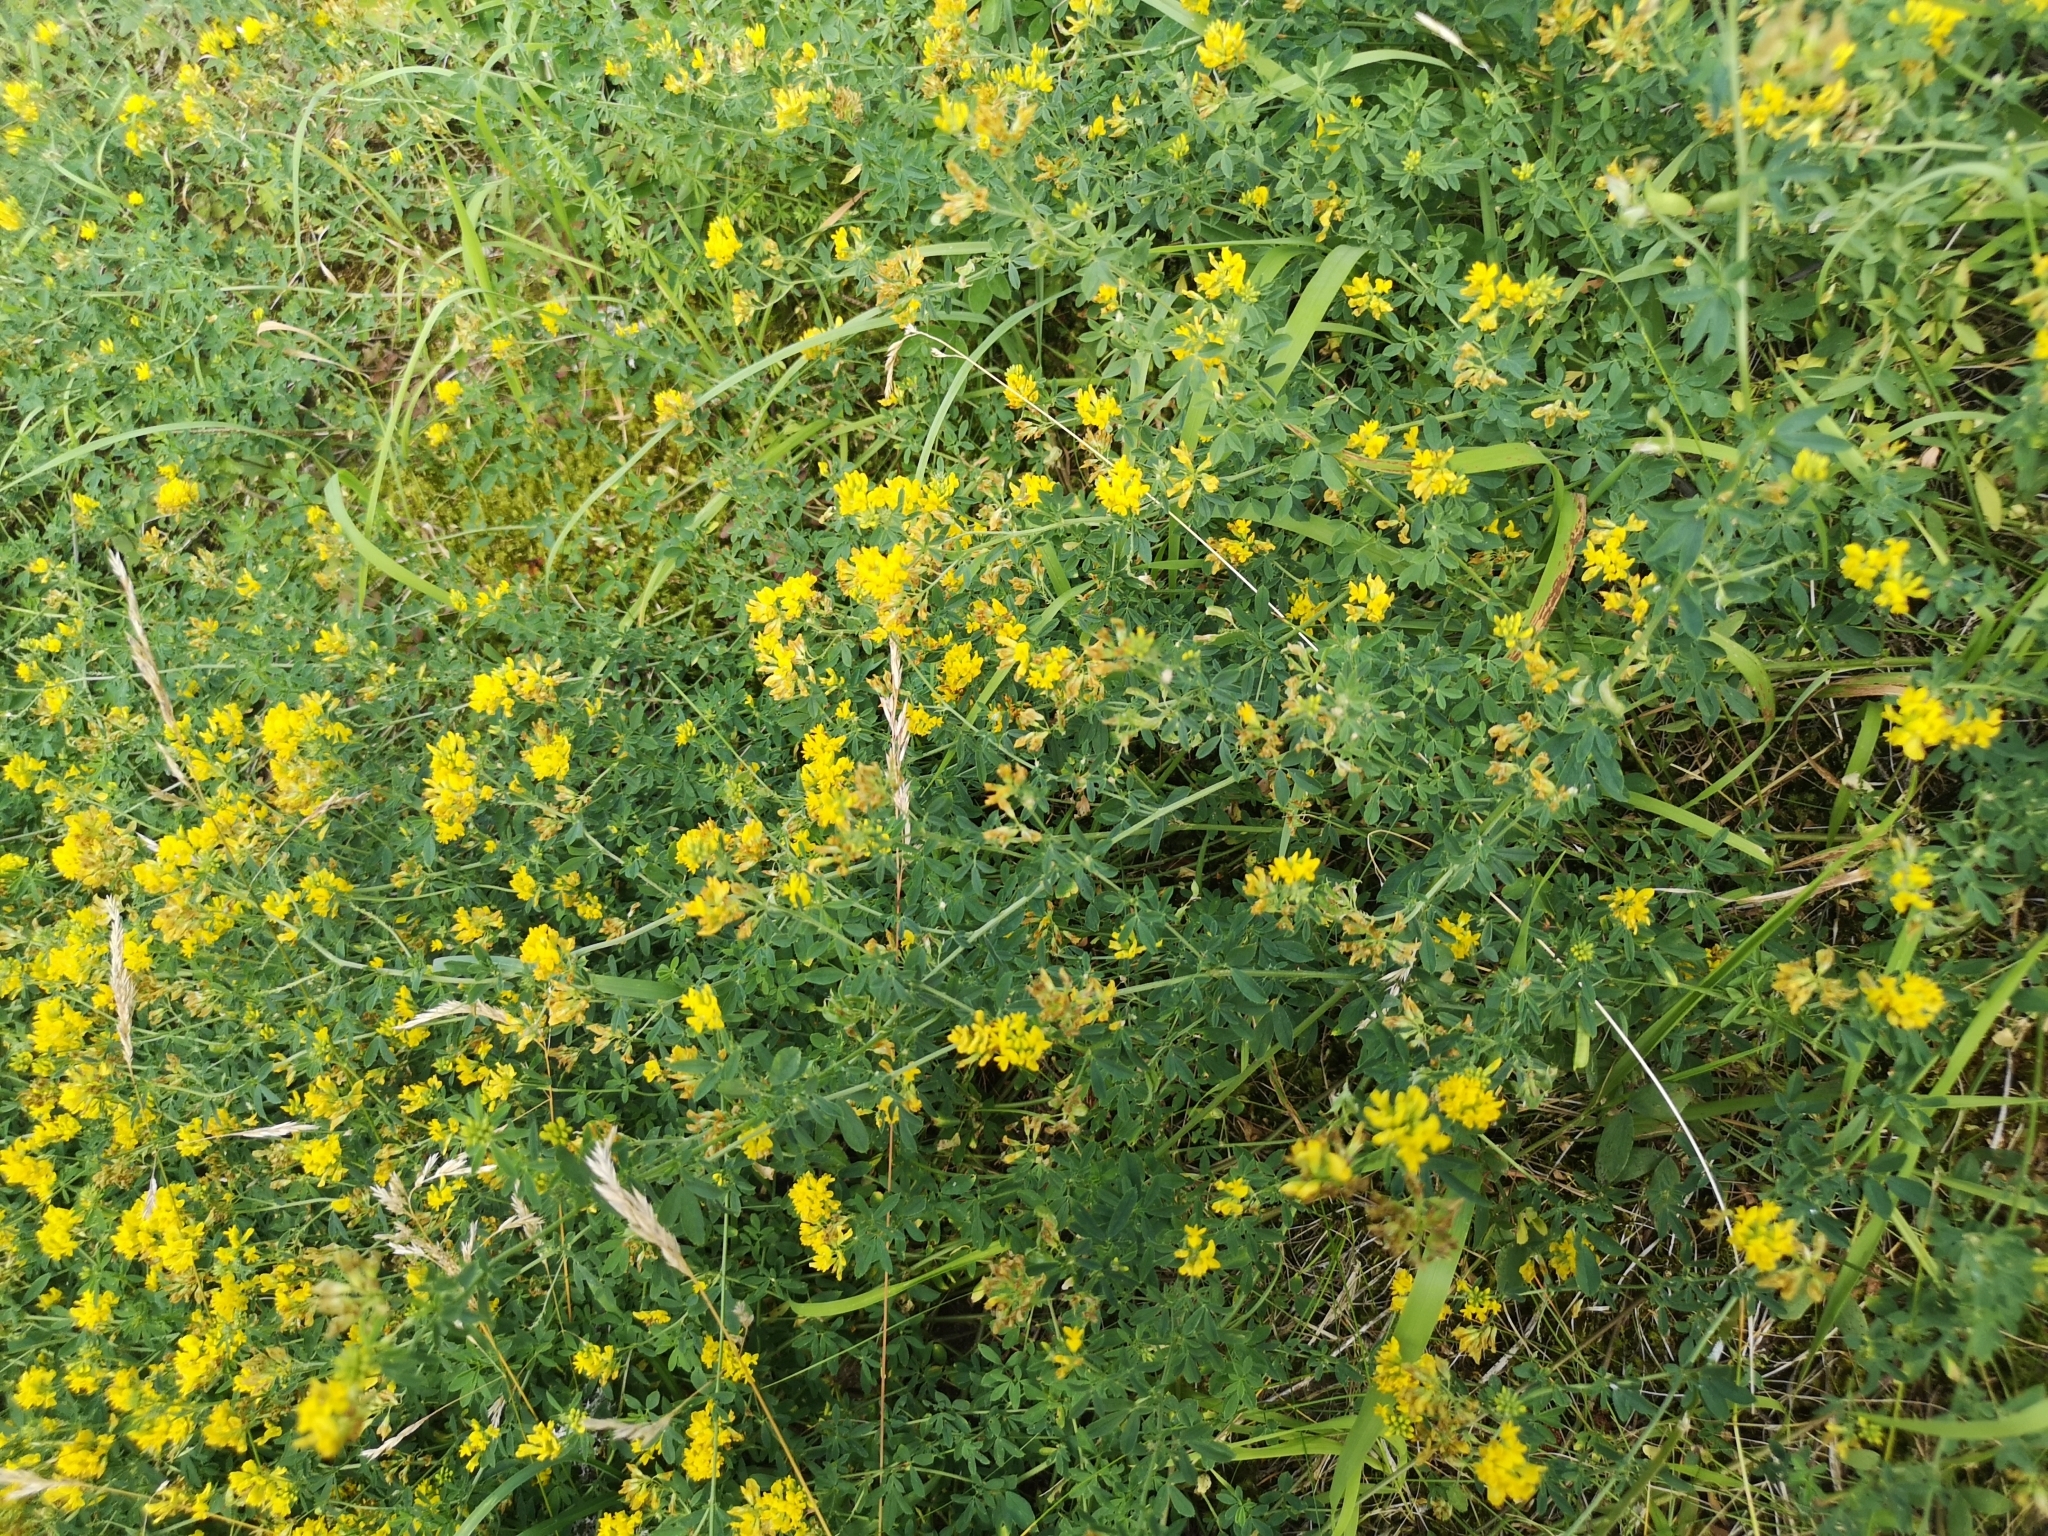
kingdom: Plantae
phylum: Tracheophyta
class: Magnoliopsida
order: Fabales
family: Fabaceae
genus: Medicago
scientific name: Medicago falcata
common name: Sickle medick
